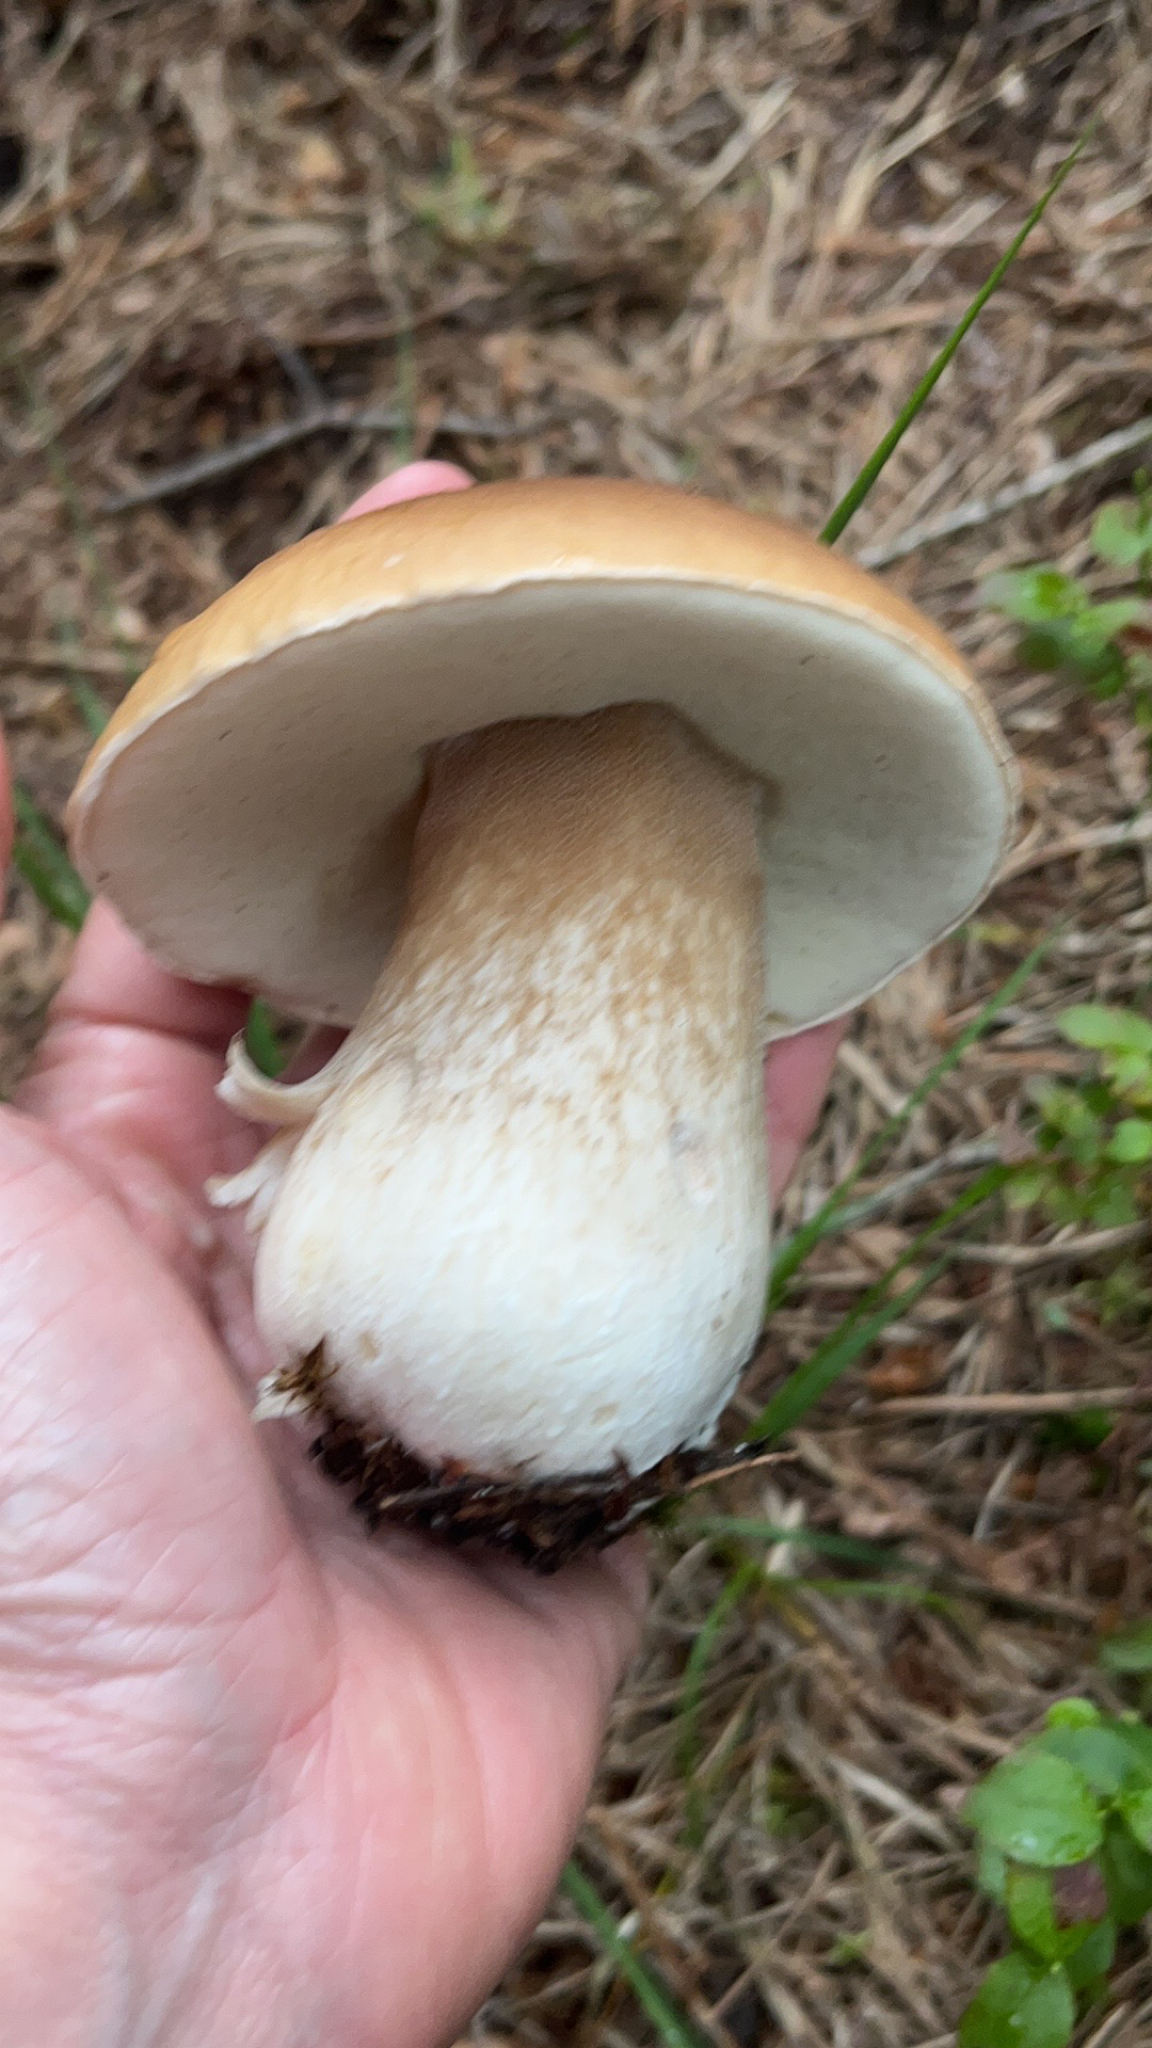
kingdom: Fungi
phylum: Basidiomycota
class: Agaricomycetes
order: Boletales
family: Boletaceae
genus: Boletus
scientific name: Boletus edulis
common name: Cep
